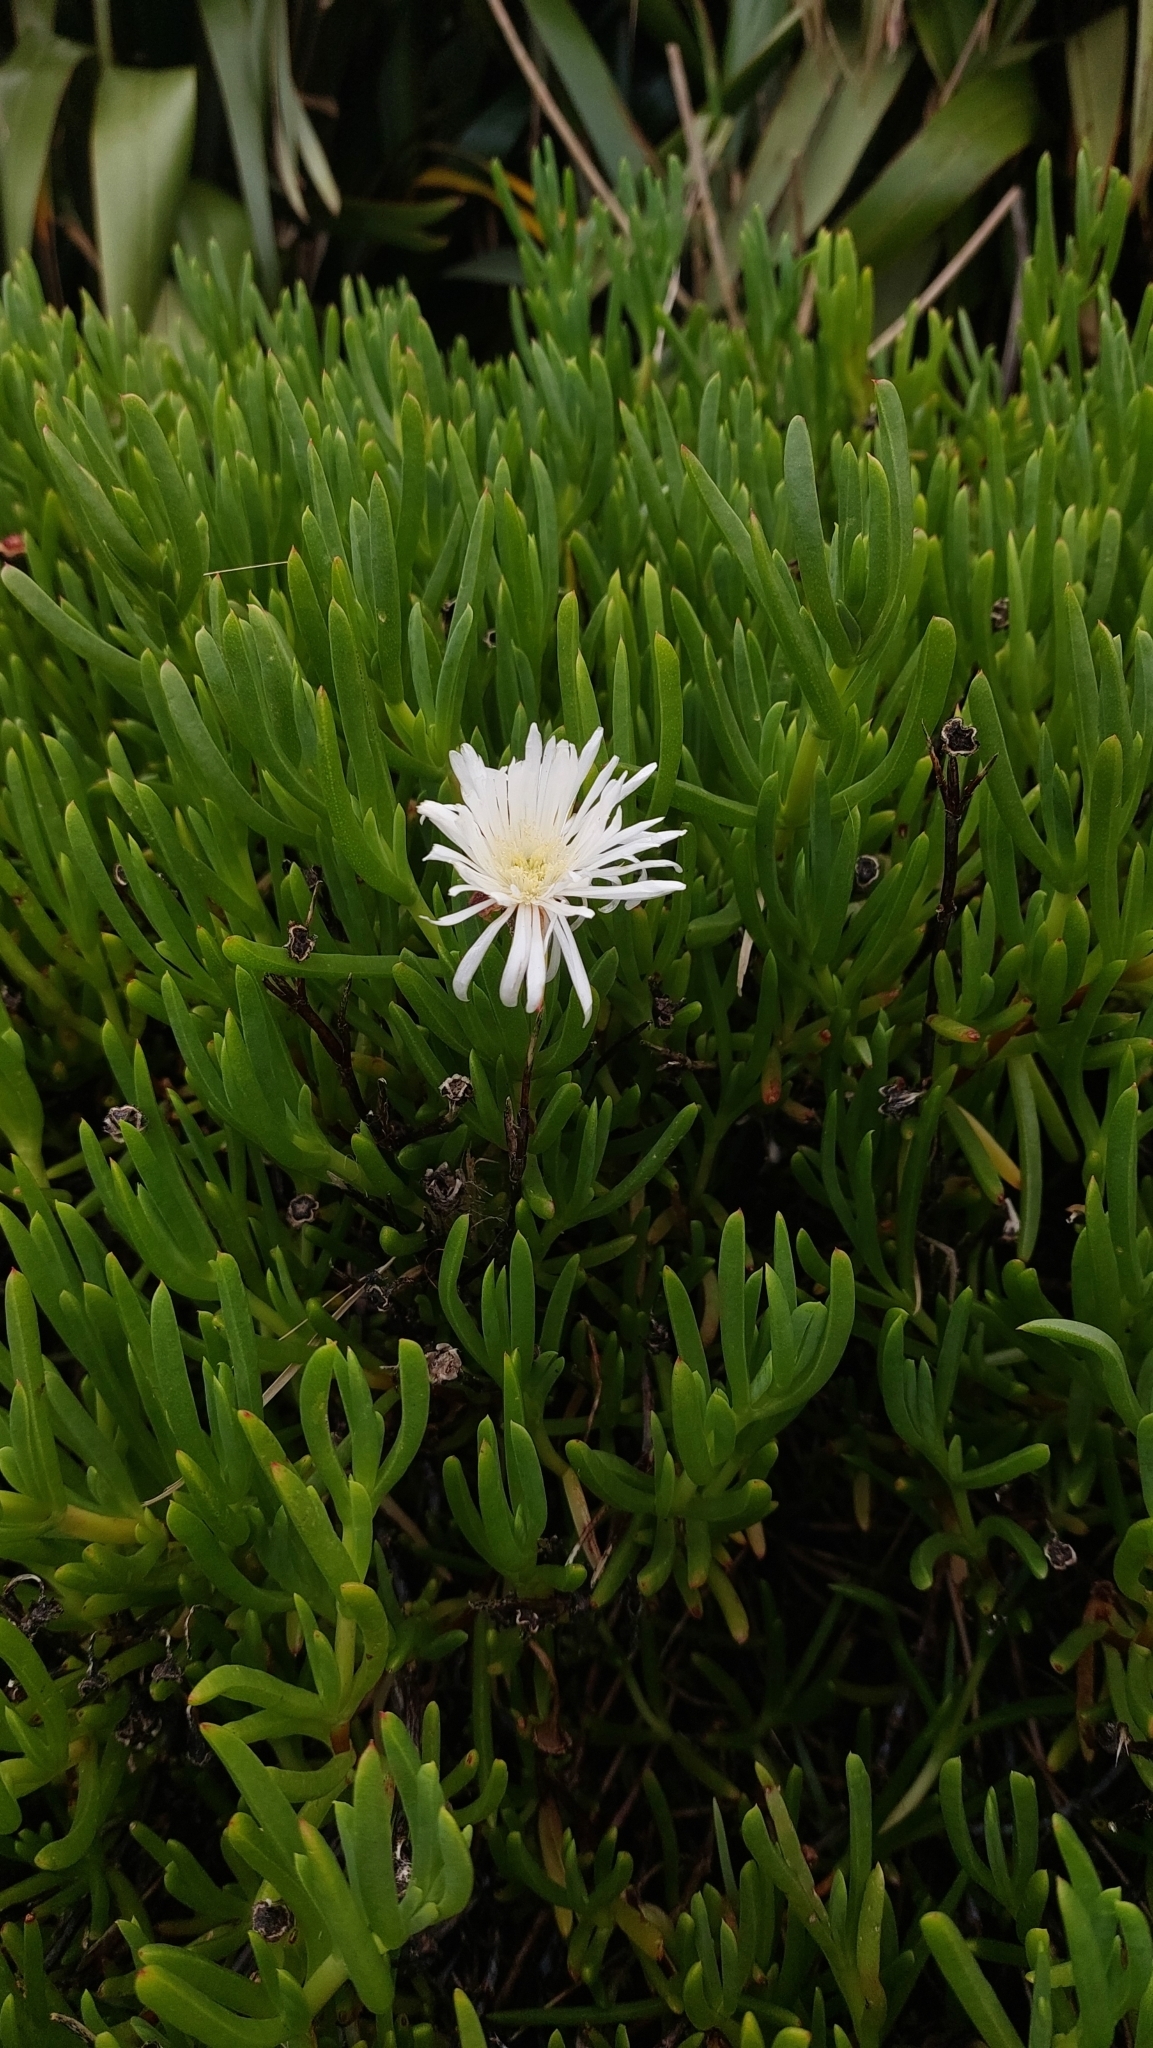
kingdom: Plantae
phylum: Tracheophyta
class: Magnoliopsida
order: Caryophyllales
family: Aizoaceae
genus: Carpobrotus
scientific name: Carpobrotus edulis
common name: Hottentot-fig
